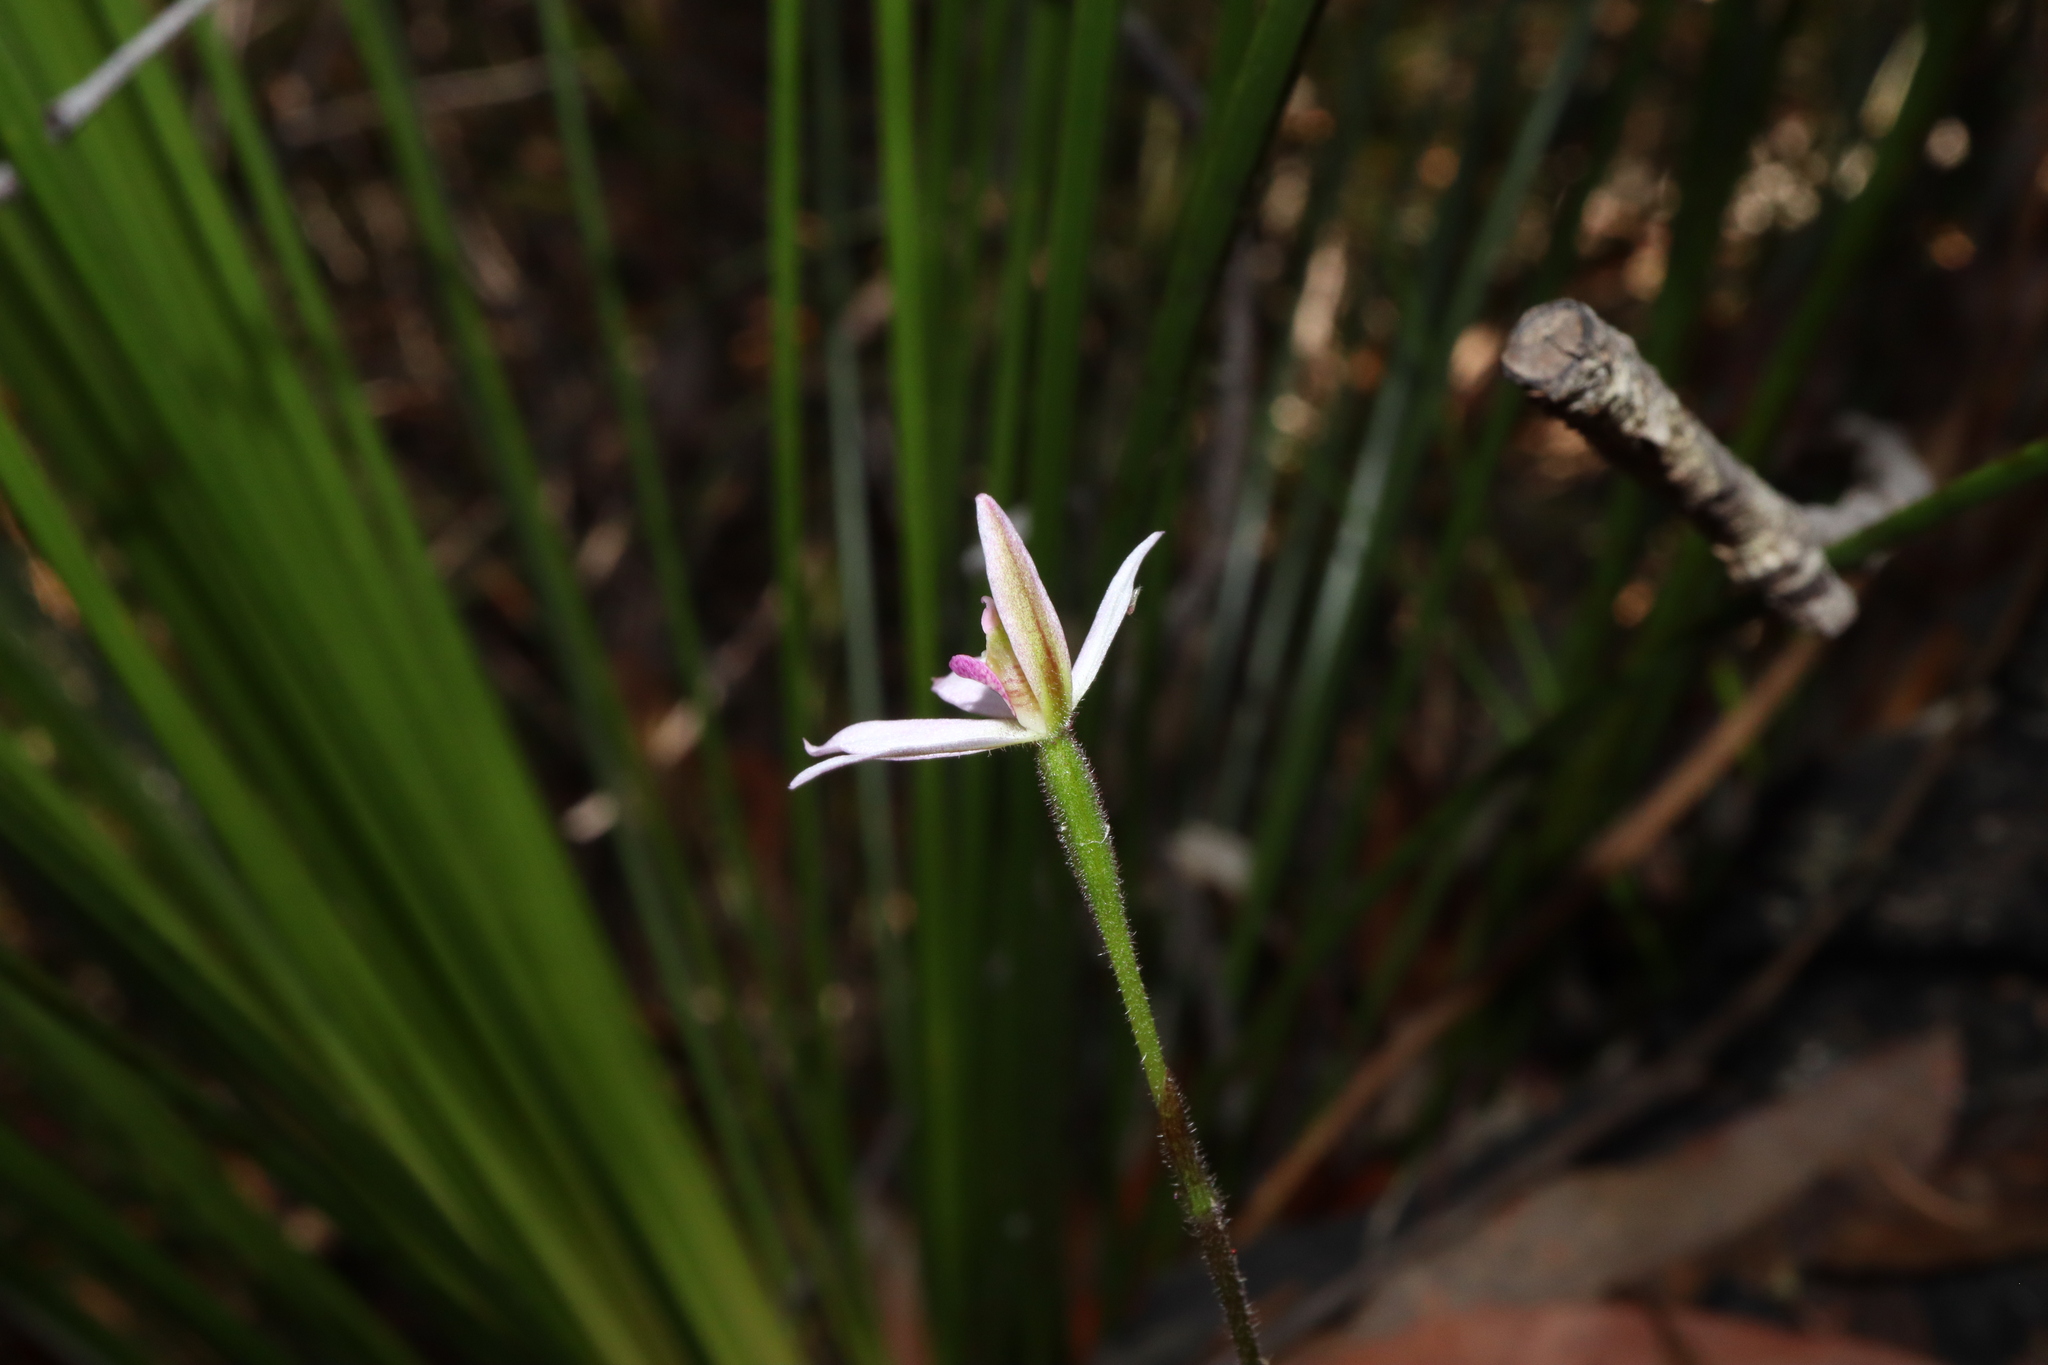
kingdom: Plantae
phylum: Tracheophyta
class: Liliopsida
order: Asparagales
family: Orchidaceae
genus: Caladenia
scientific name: Caladenia alata
